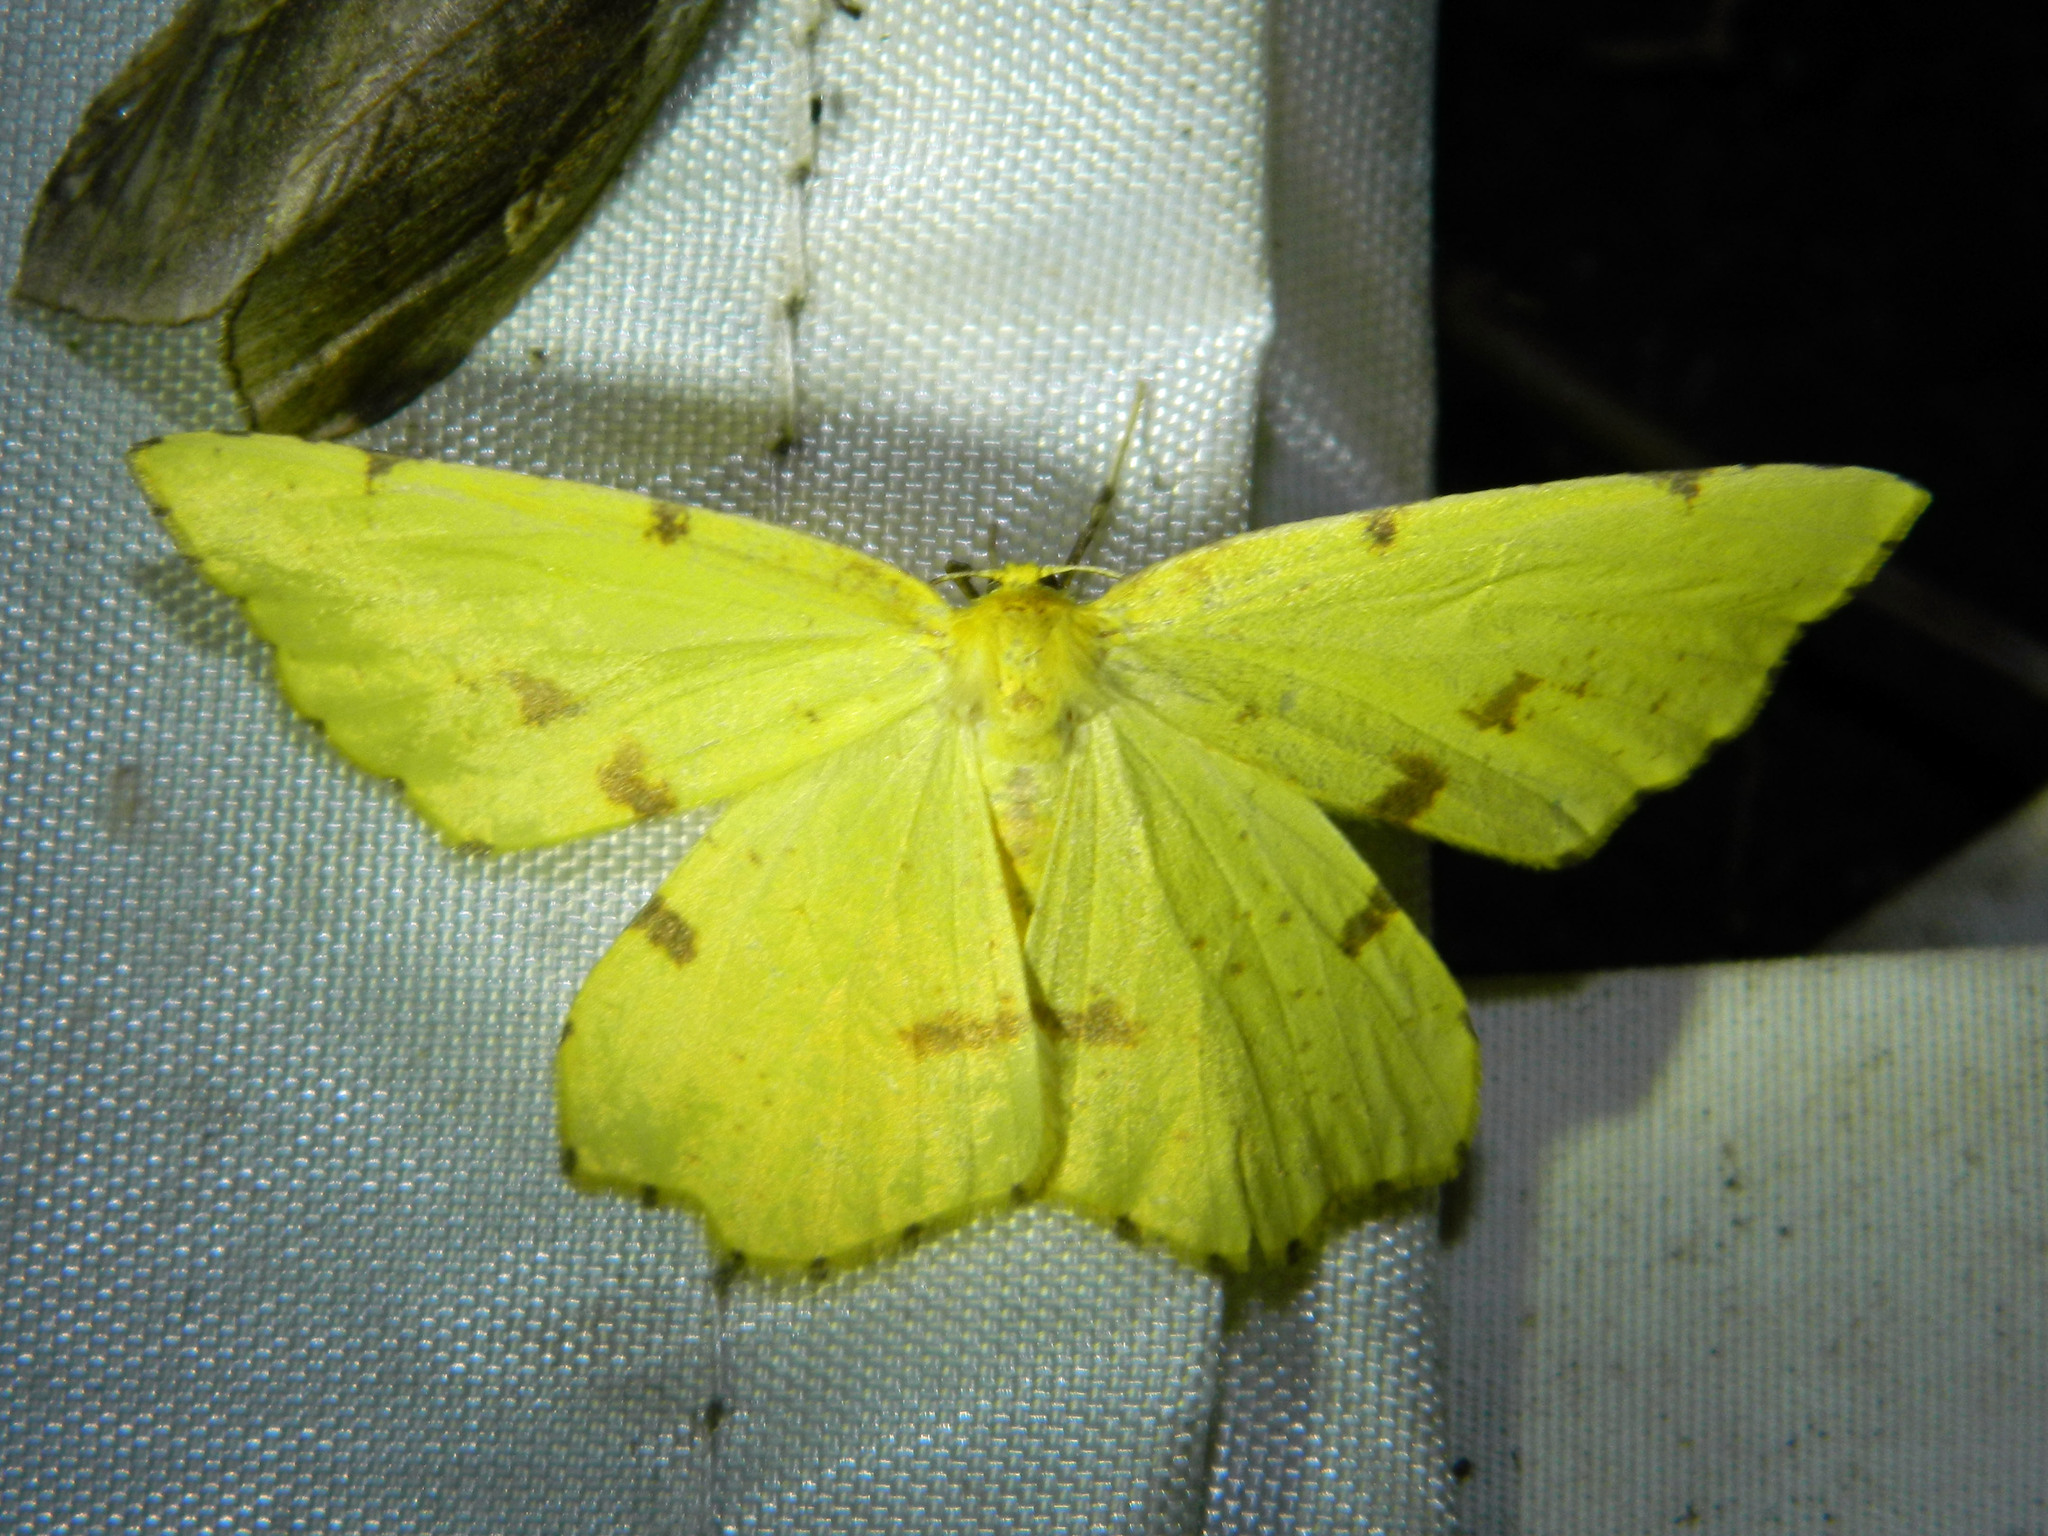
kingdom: Animalia
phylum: Arthropoda
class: Insecta
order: Lepidoptera
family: Geometridae
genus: Xanthotype
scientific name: Xanthotype
